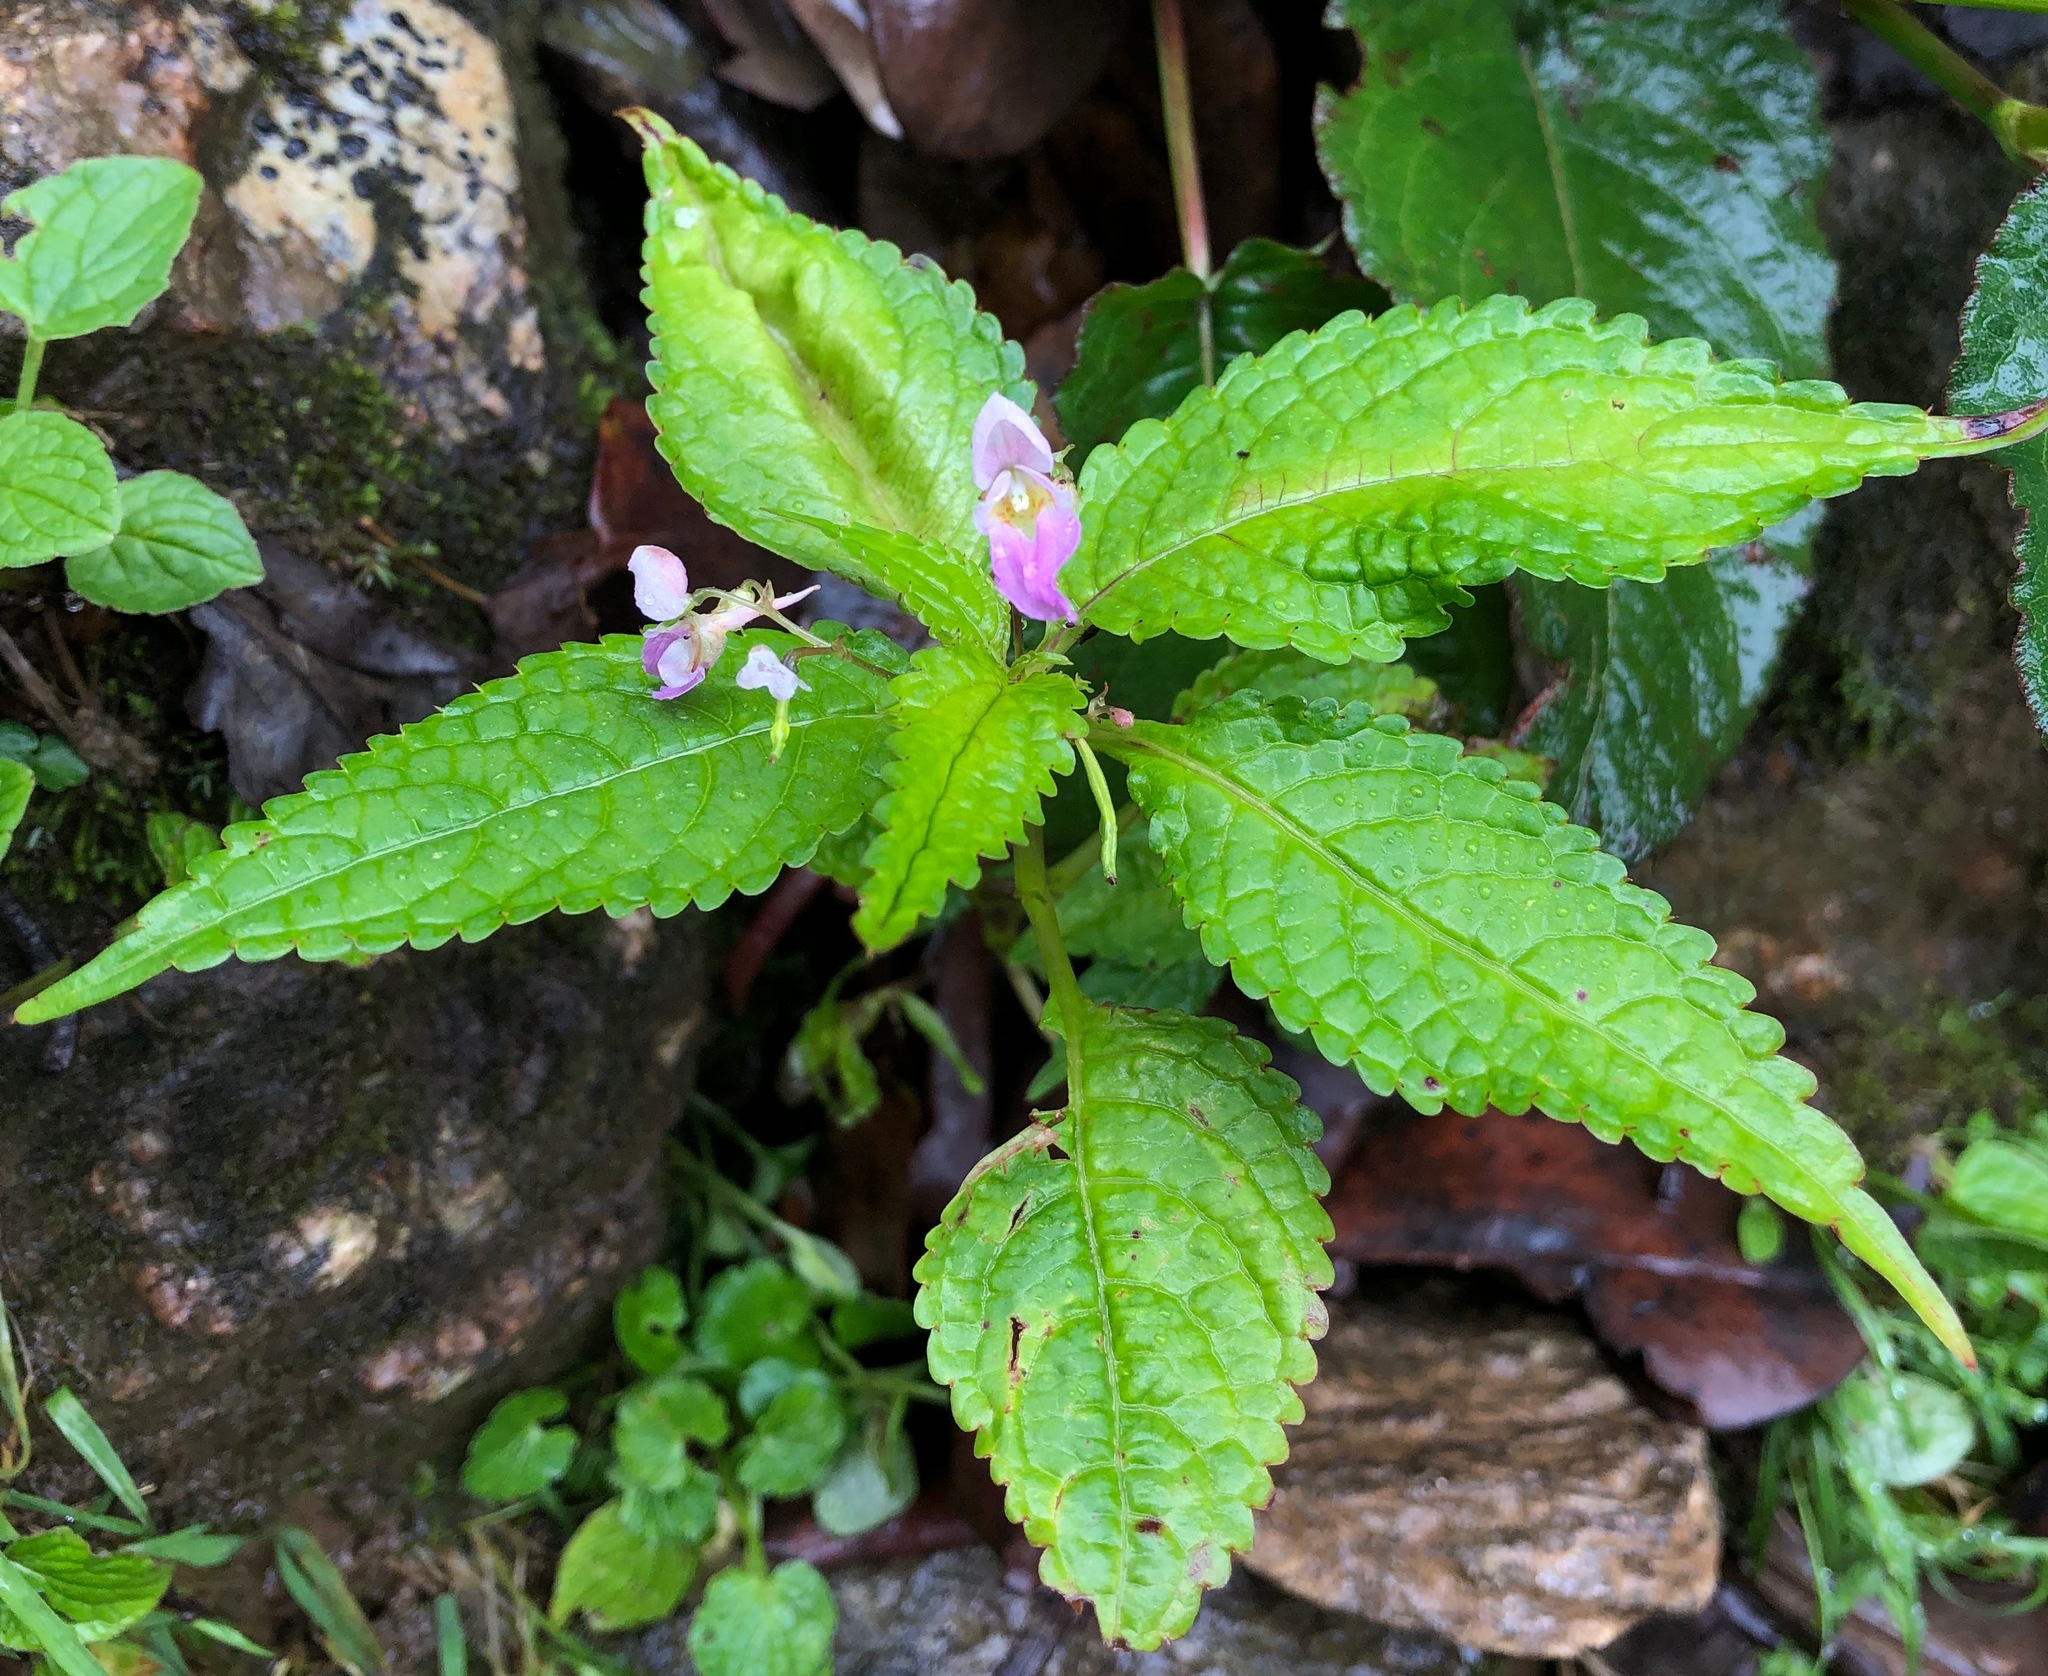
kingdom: Plantae
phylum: Tracheophyta
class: Magnoliopsida
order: Ericales
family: Balsaminaceae
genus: Impatiens
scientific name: Impatiens laxiflora
